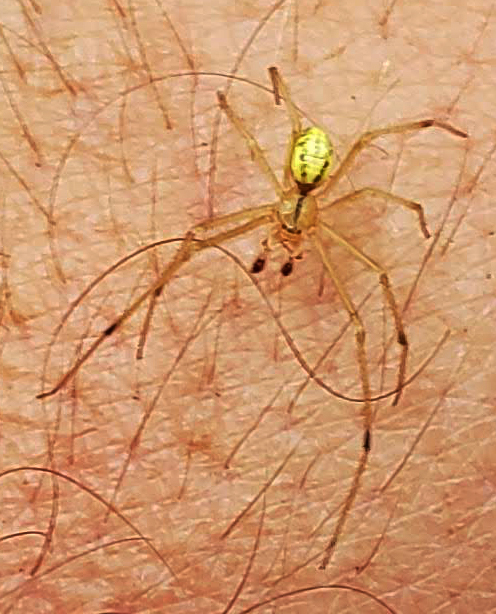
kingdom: Animalia
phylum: Arthropoda
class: Arachnida
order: Araneae
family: Theridiidae
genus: Enoplognatha
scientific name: Enoplognatha ovata
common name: Common candy-striped spider
